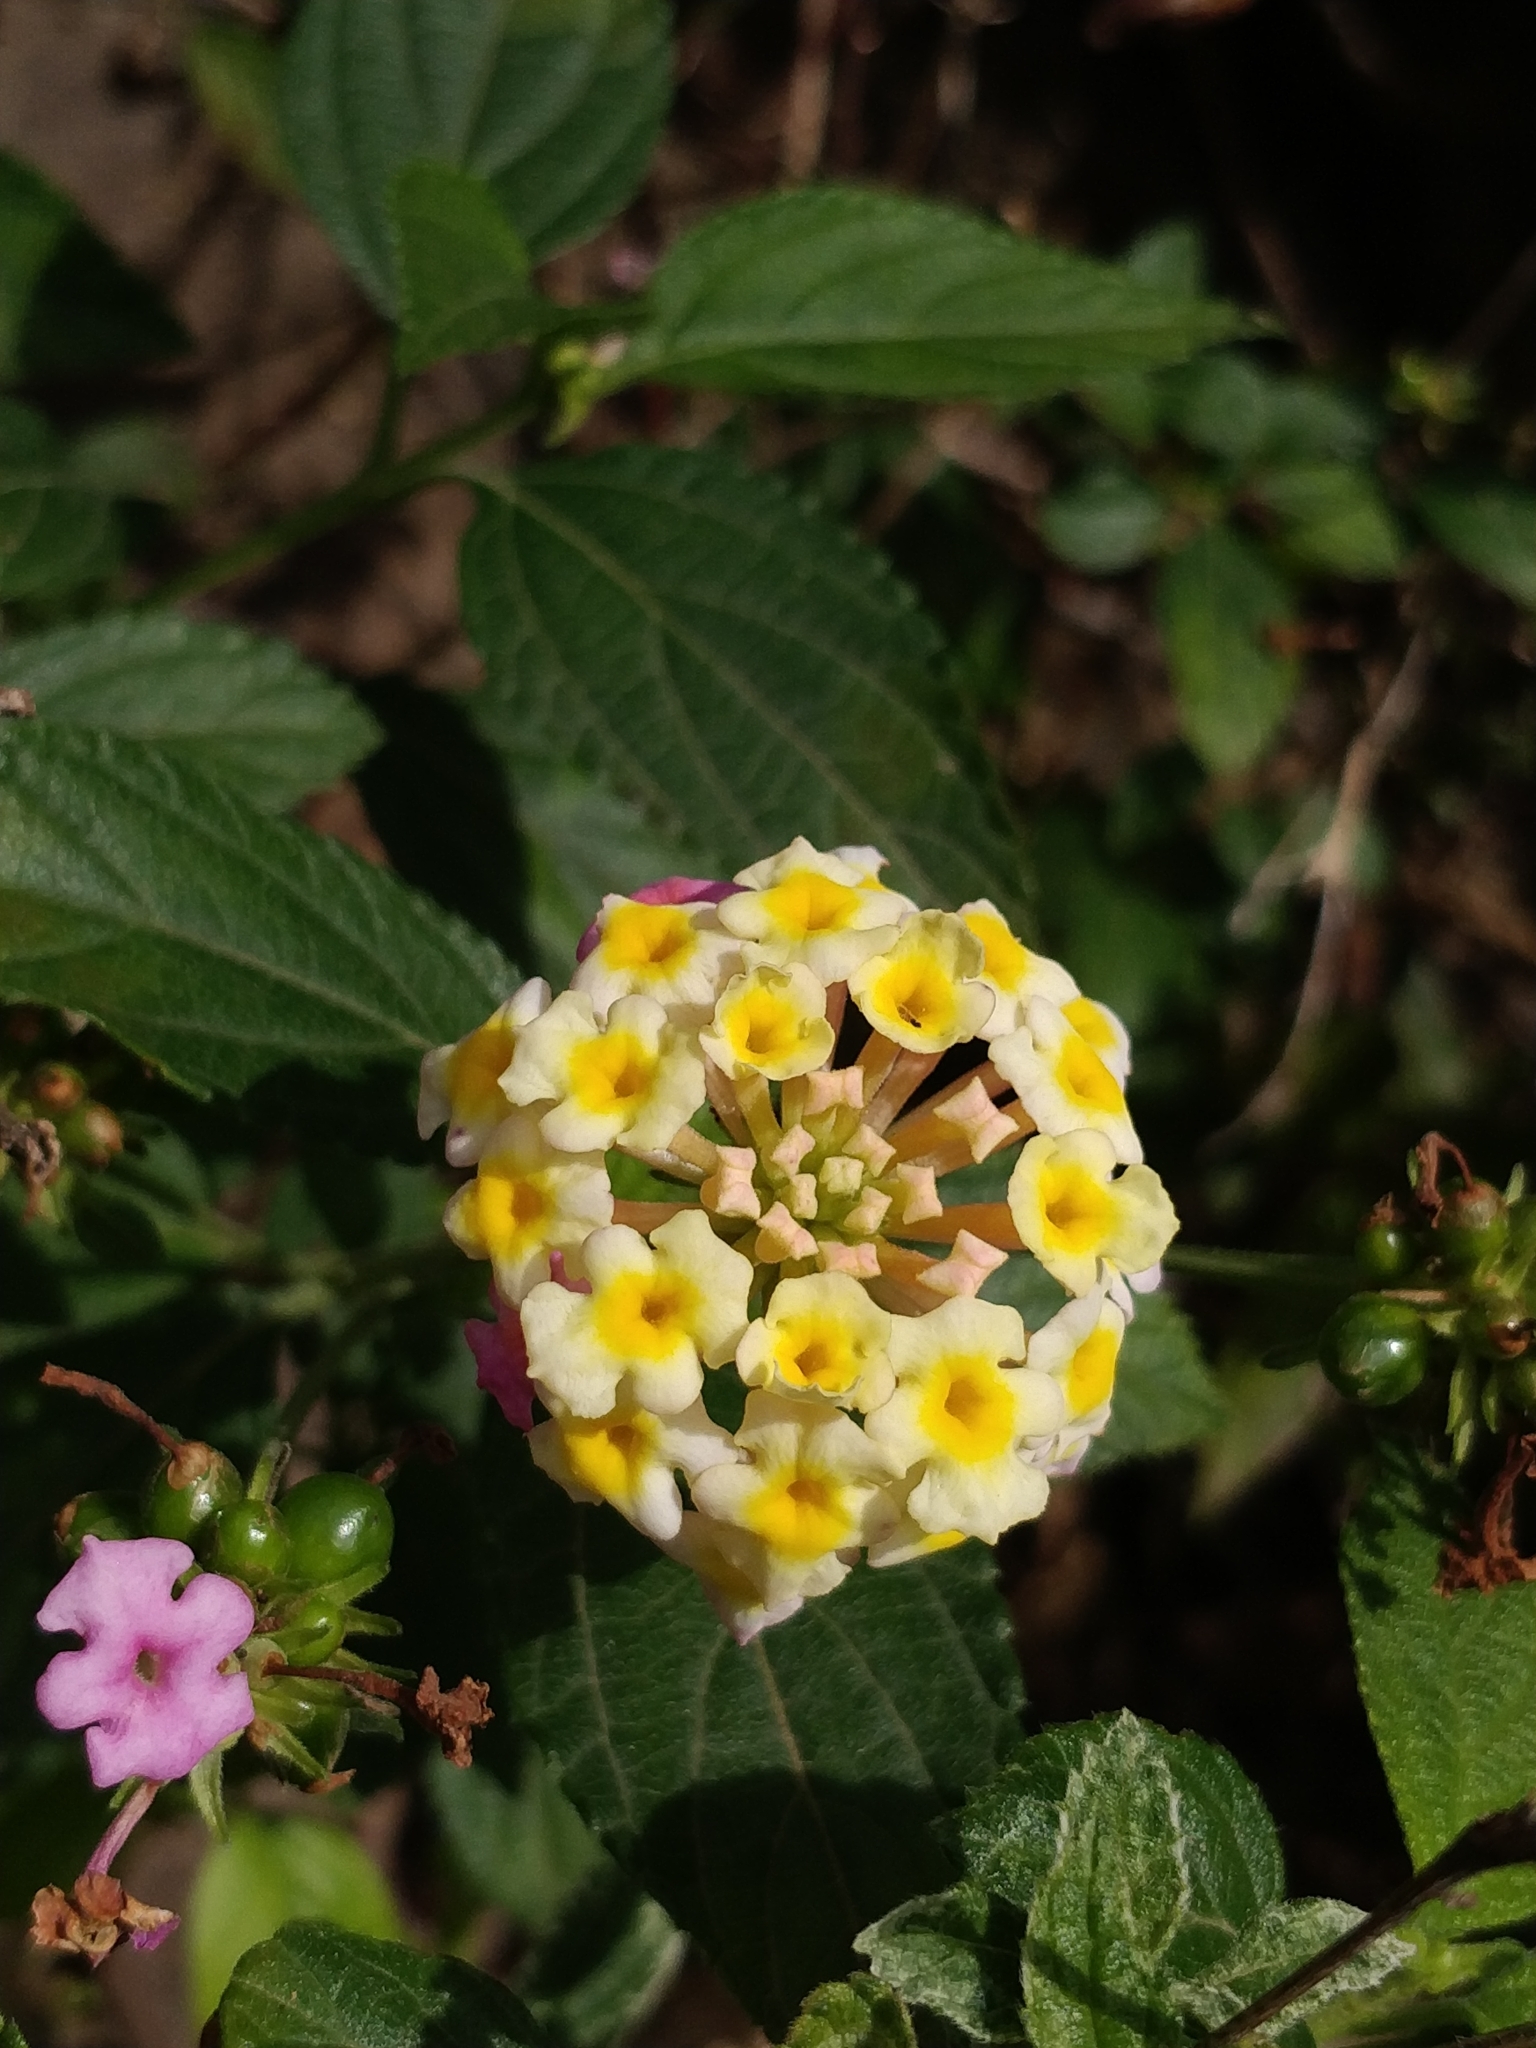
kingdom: Plantae
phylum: Tracheophyta
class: Magnoliopsida
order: Lamiales
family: Verbenaceae
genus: Lantana
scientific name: Lantana camara
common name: Lantana
